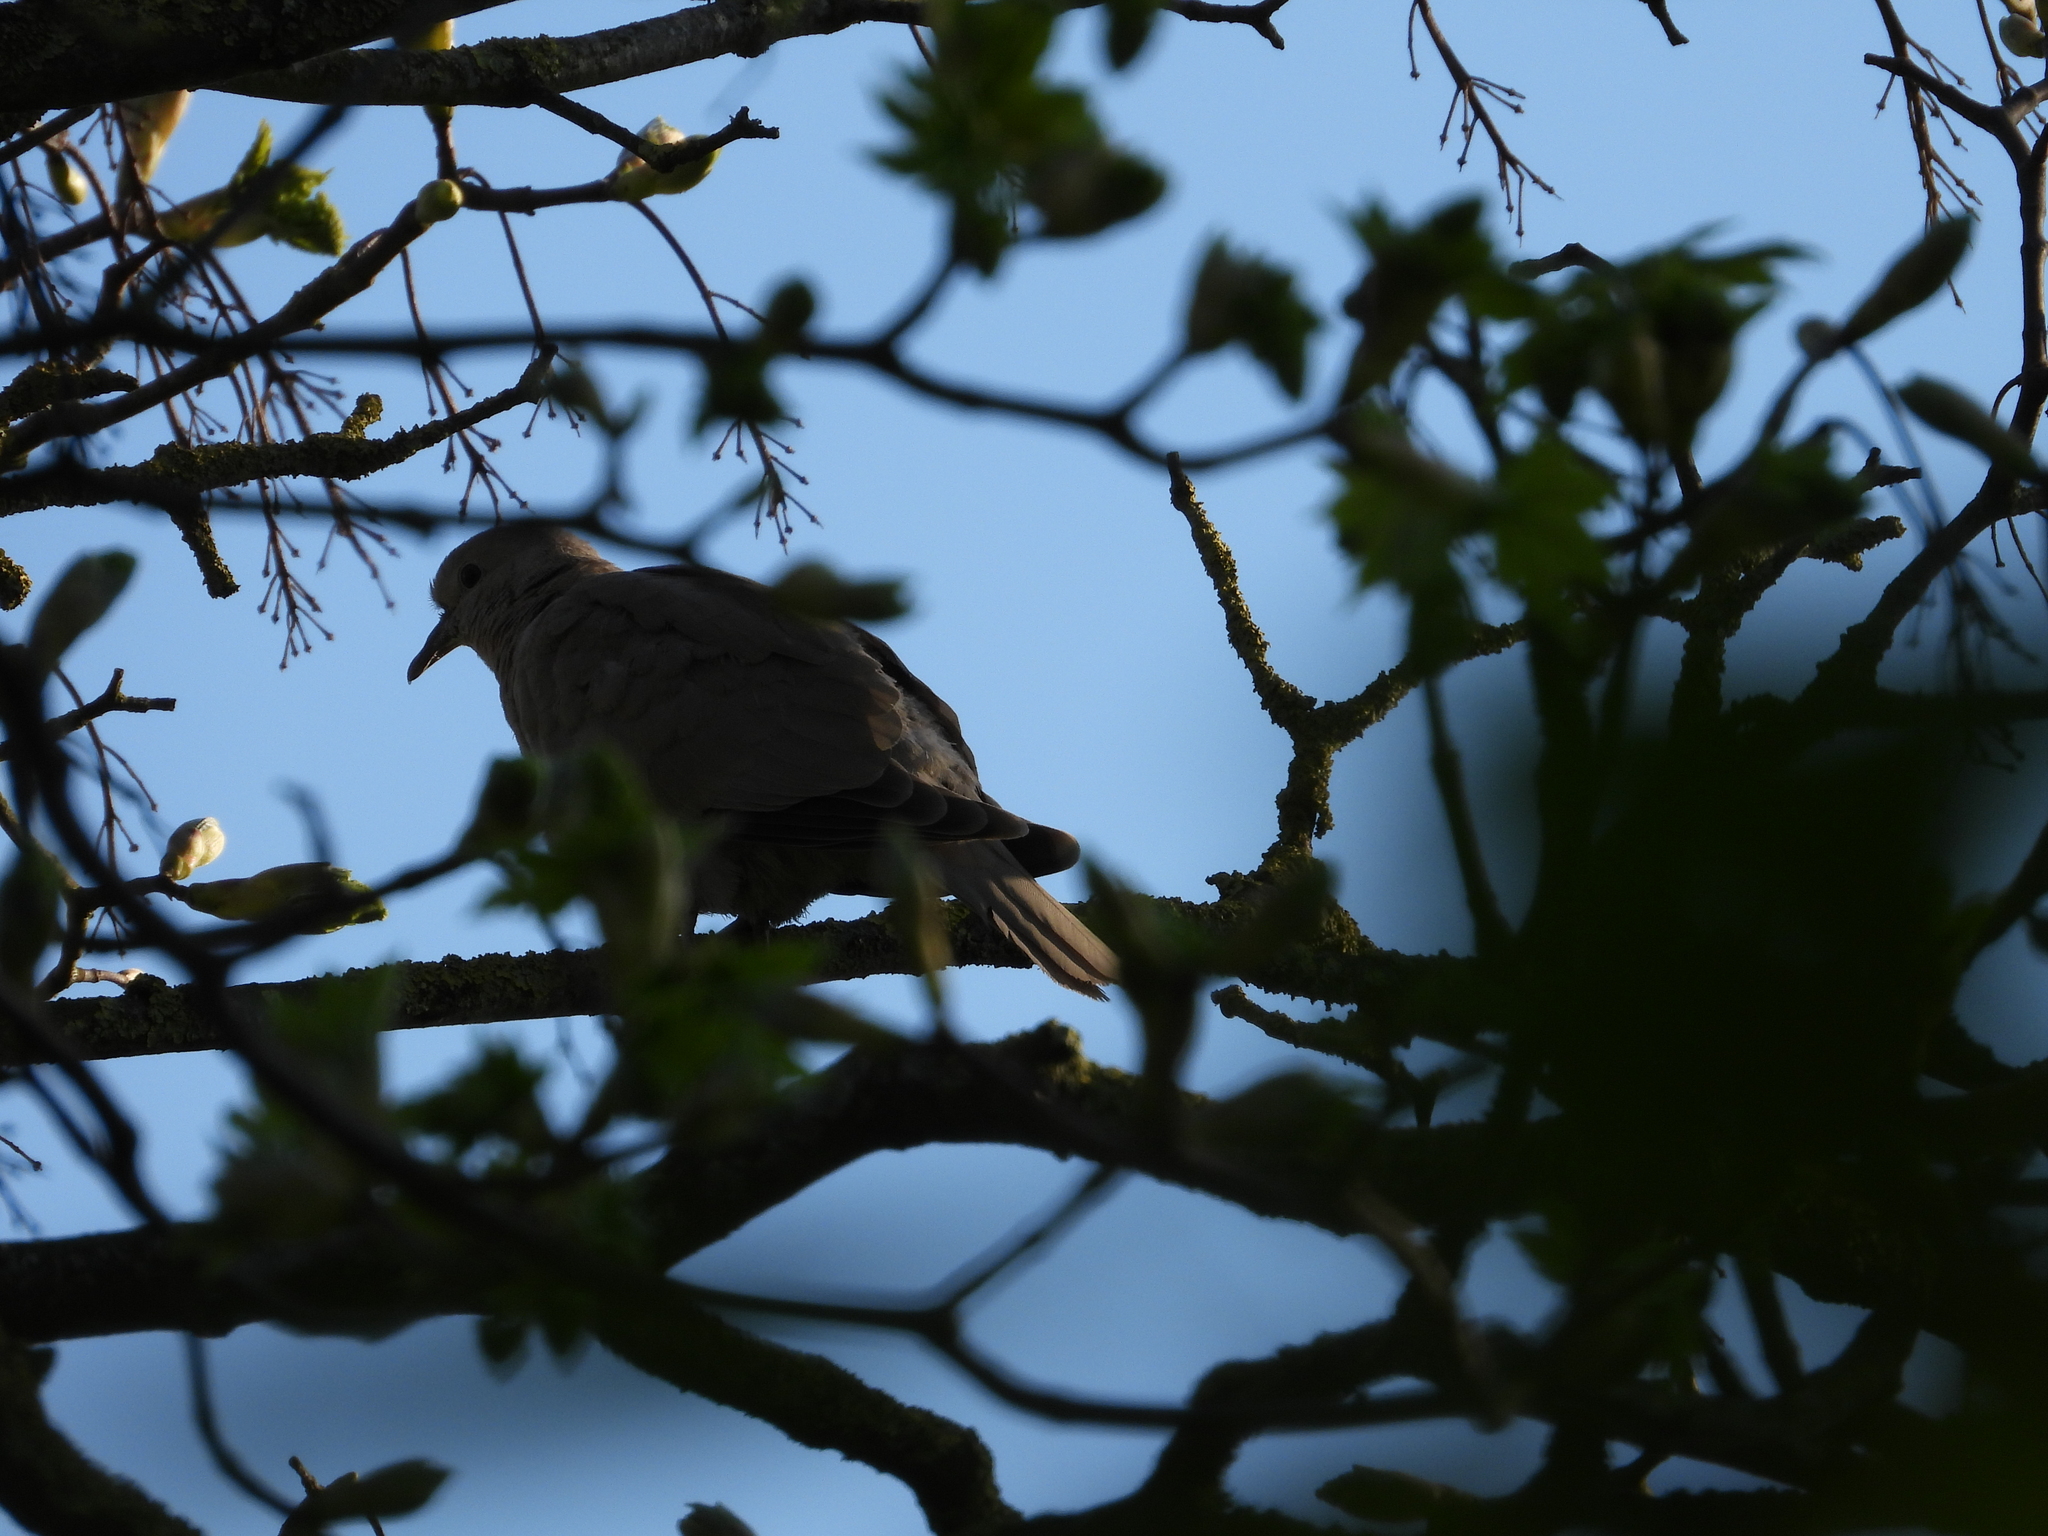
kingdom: Animalia
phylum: Chordata
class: Aves
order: Columbiformes
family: Columbidae
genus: Streptopelia
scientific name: Streptopelia decaocto
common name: Eurasian collared dove
